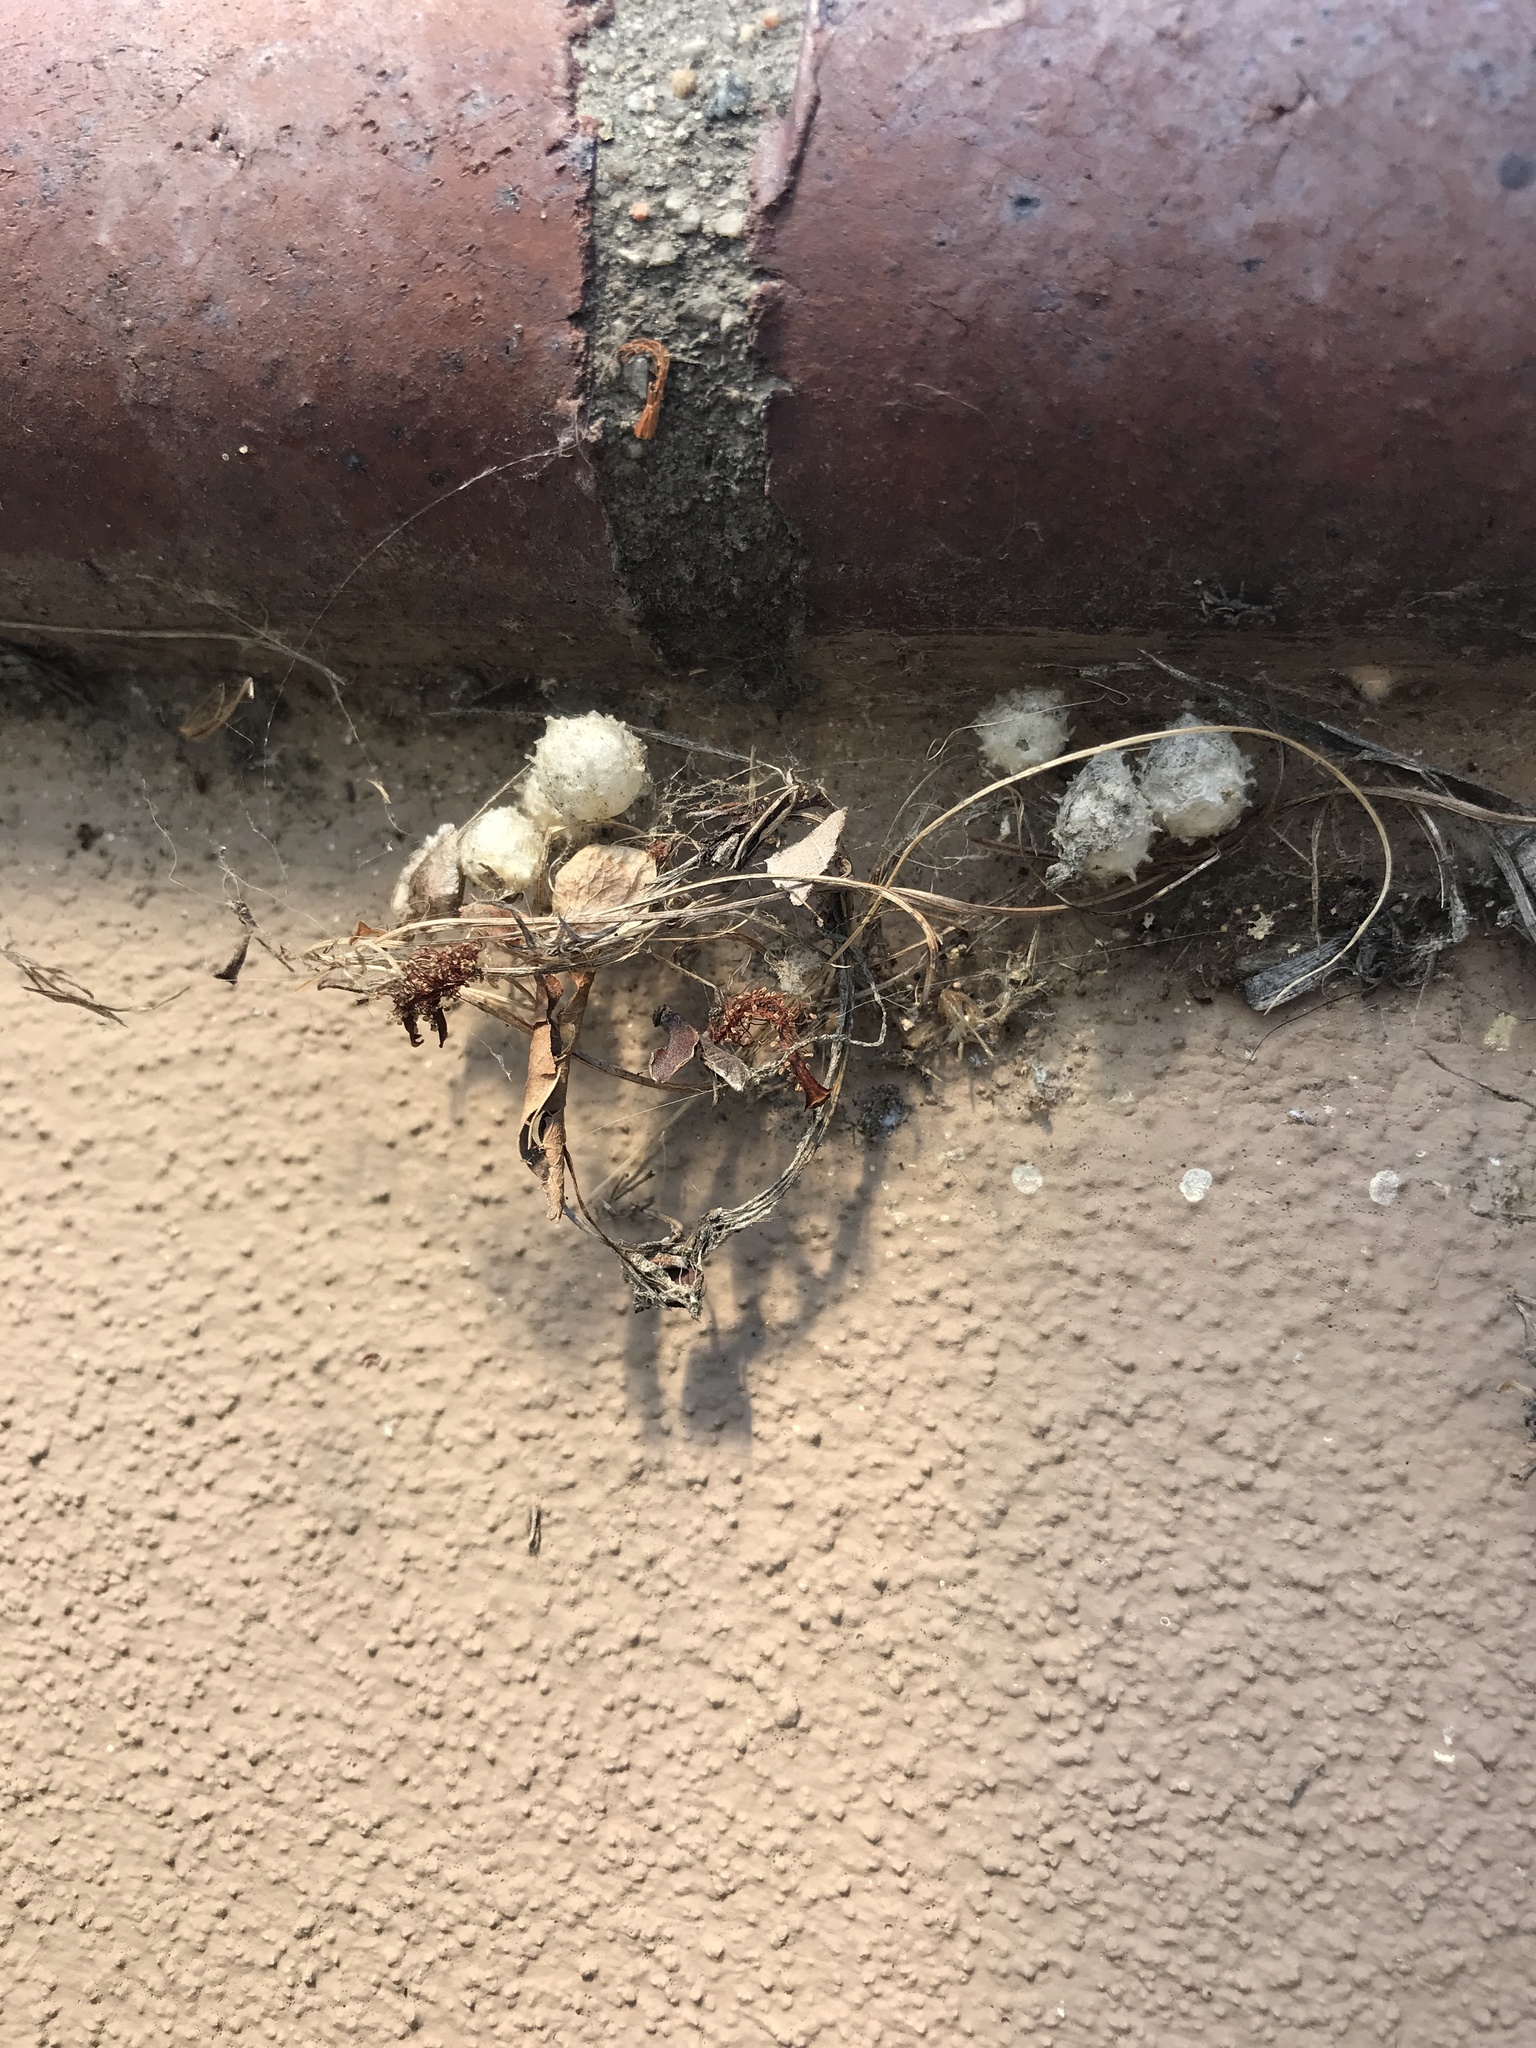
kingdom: Animalia
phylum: Arthropoda
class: Arachnida
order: Araneae
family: Theridiidae
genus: Latrodectus
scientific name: Latrodectus geometricus
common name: Brown widow spider
